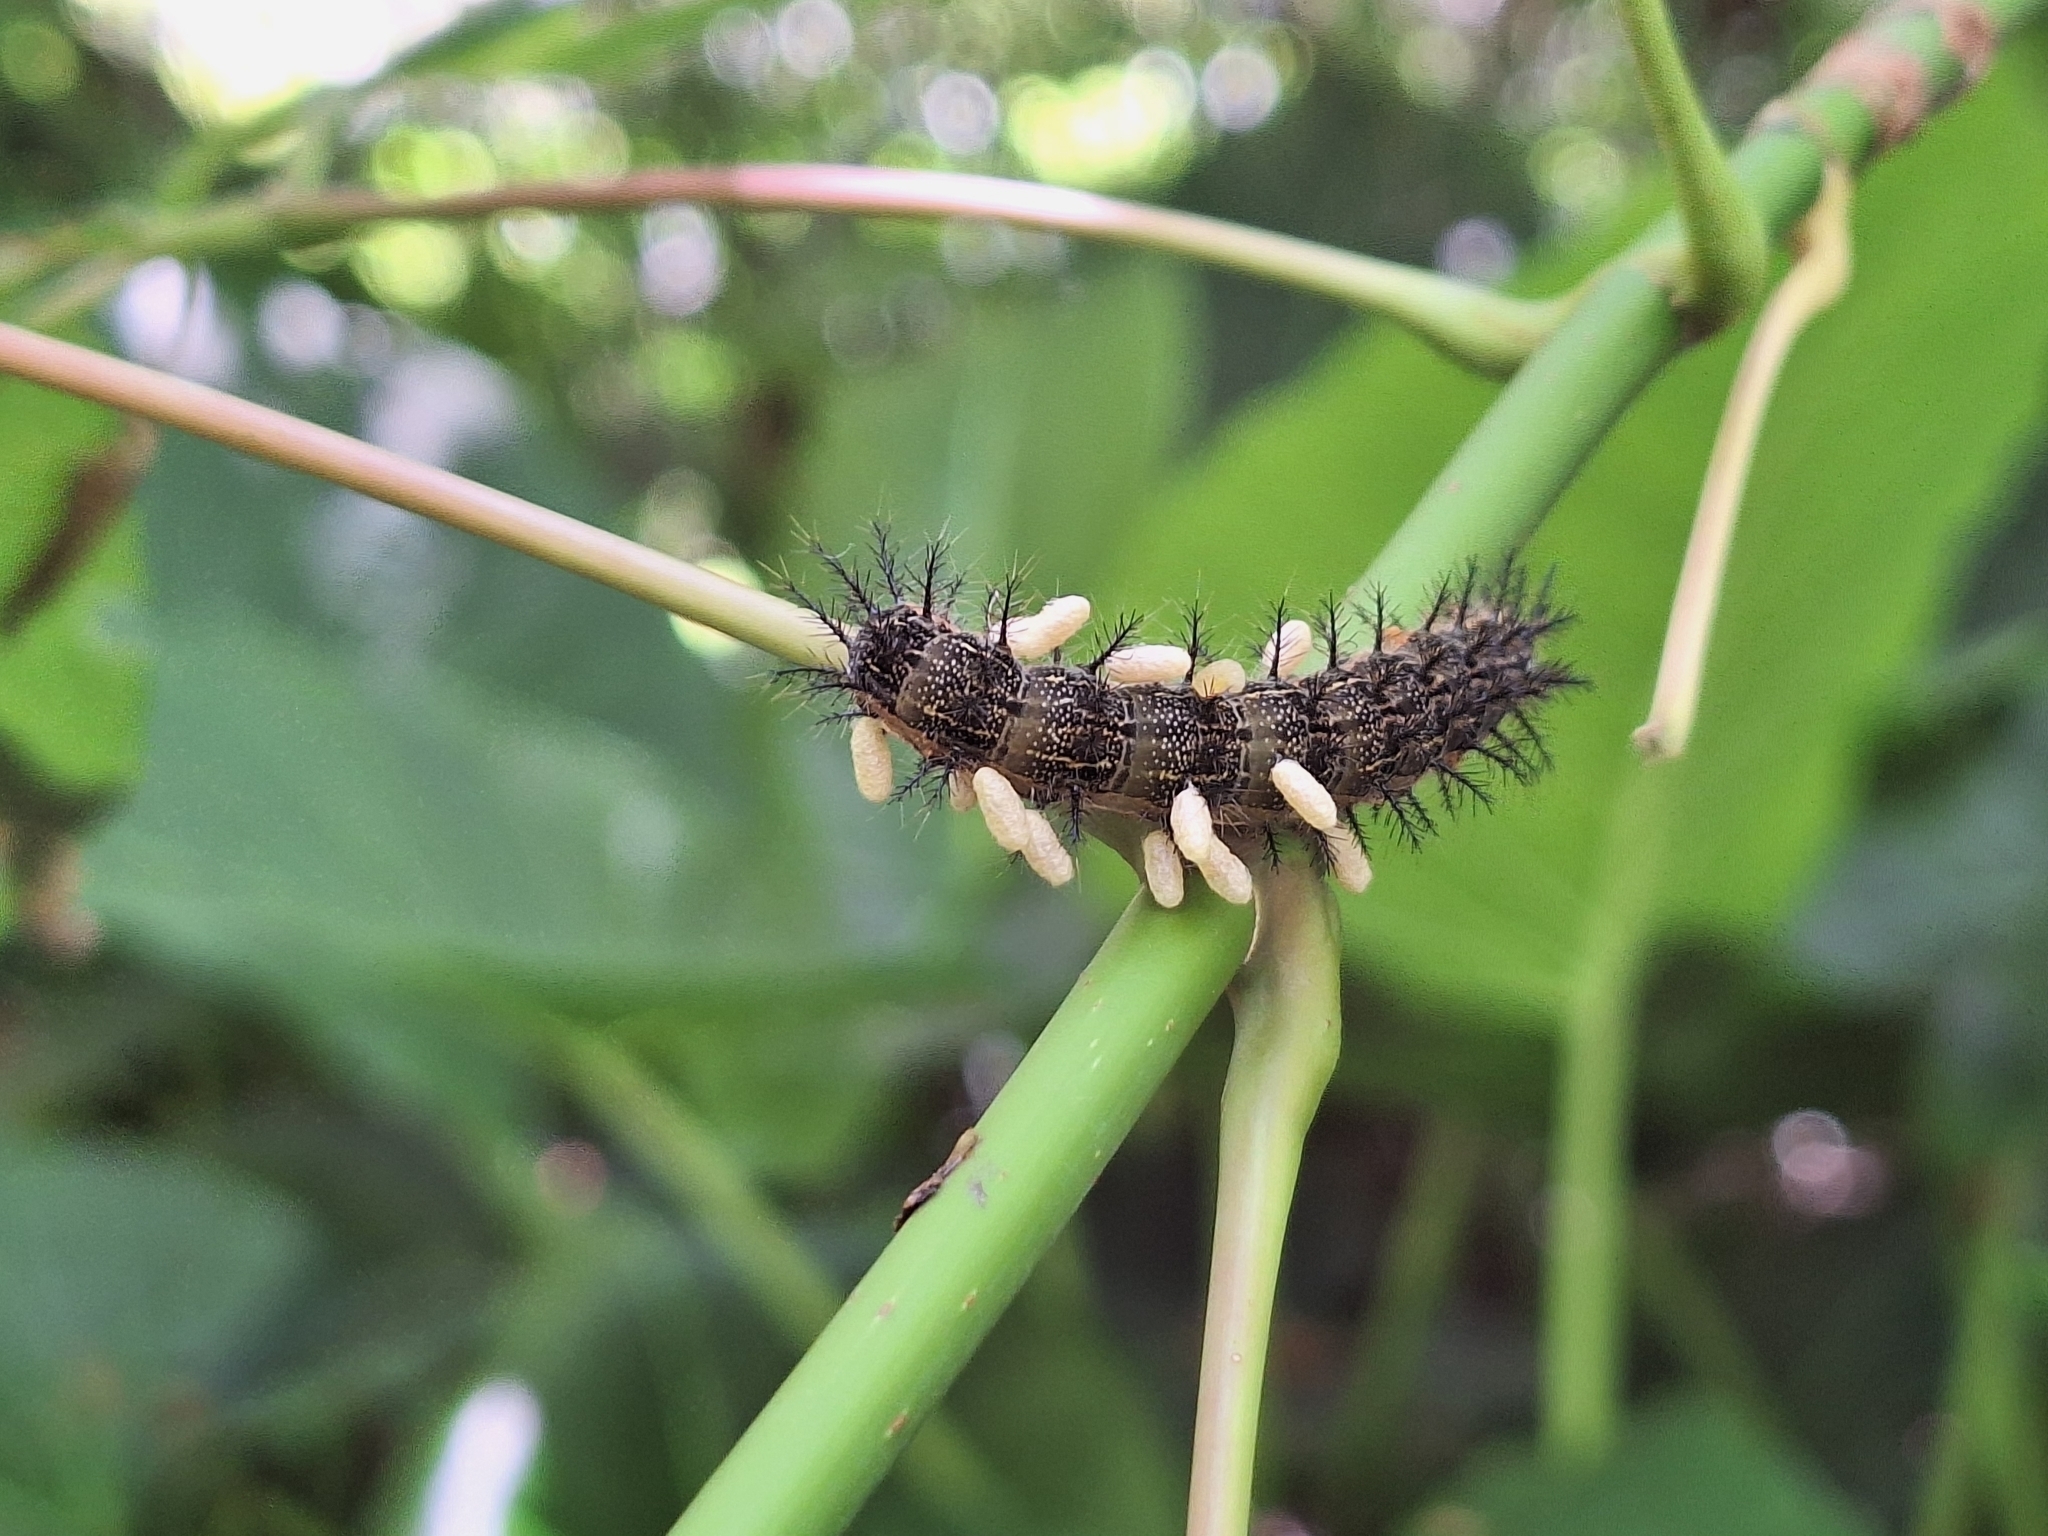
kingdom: Animalia
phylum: Arthropoda
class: Insecta
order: Lepidoptera
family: Saturniidae
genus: Hylesia
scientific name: Hylesia nigricans
